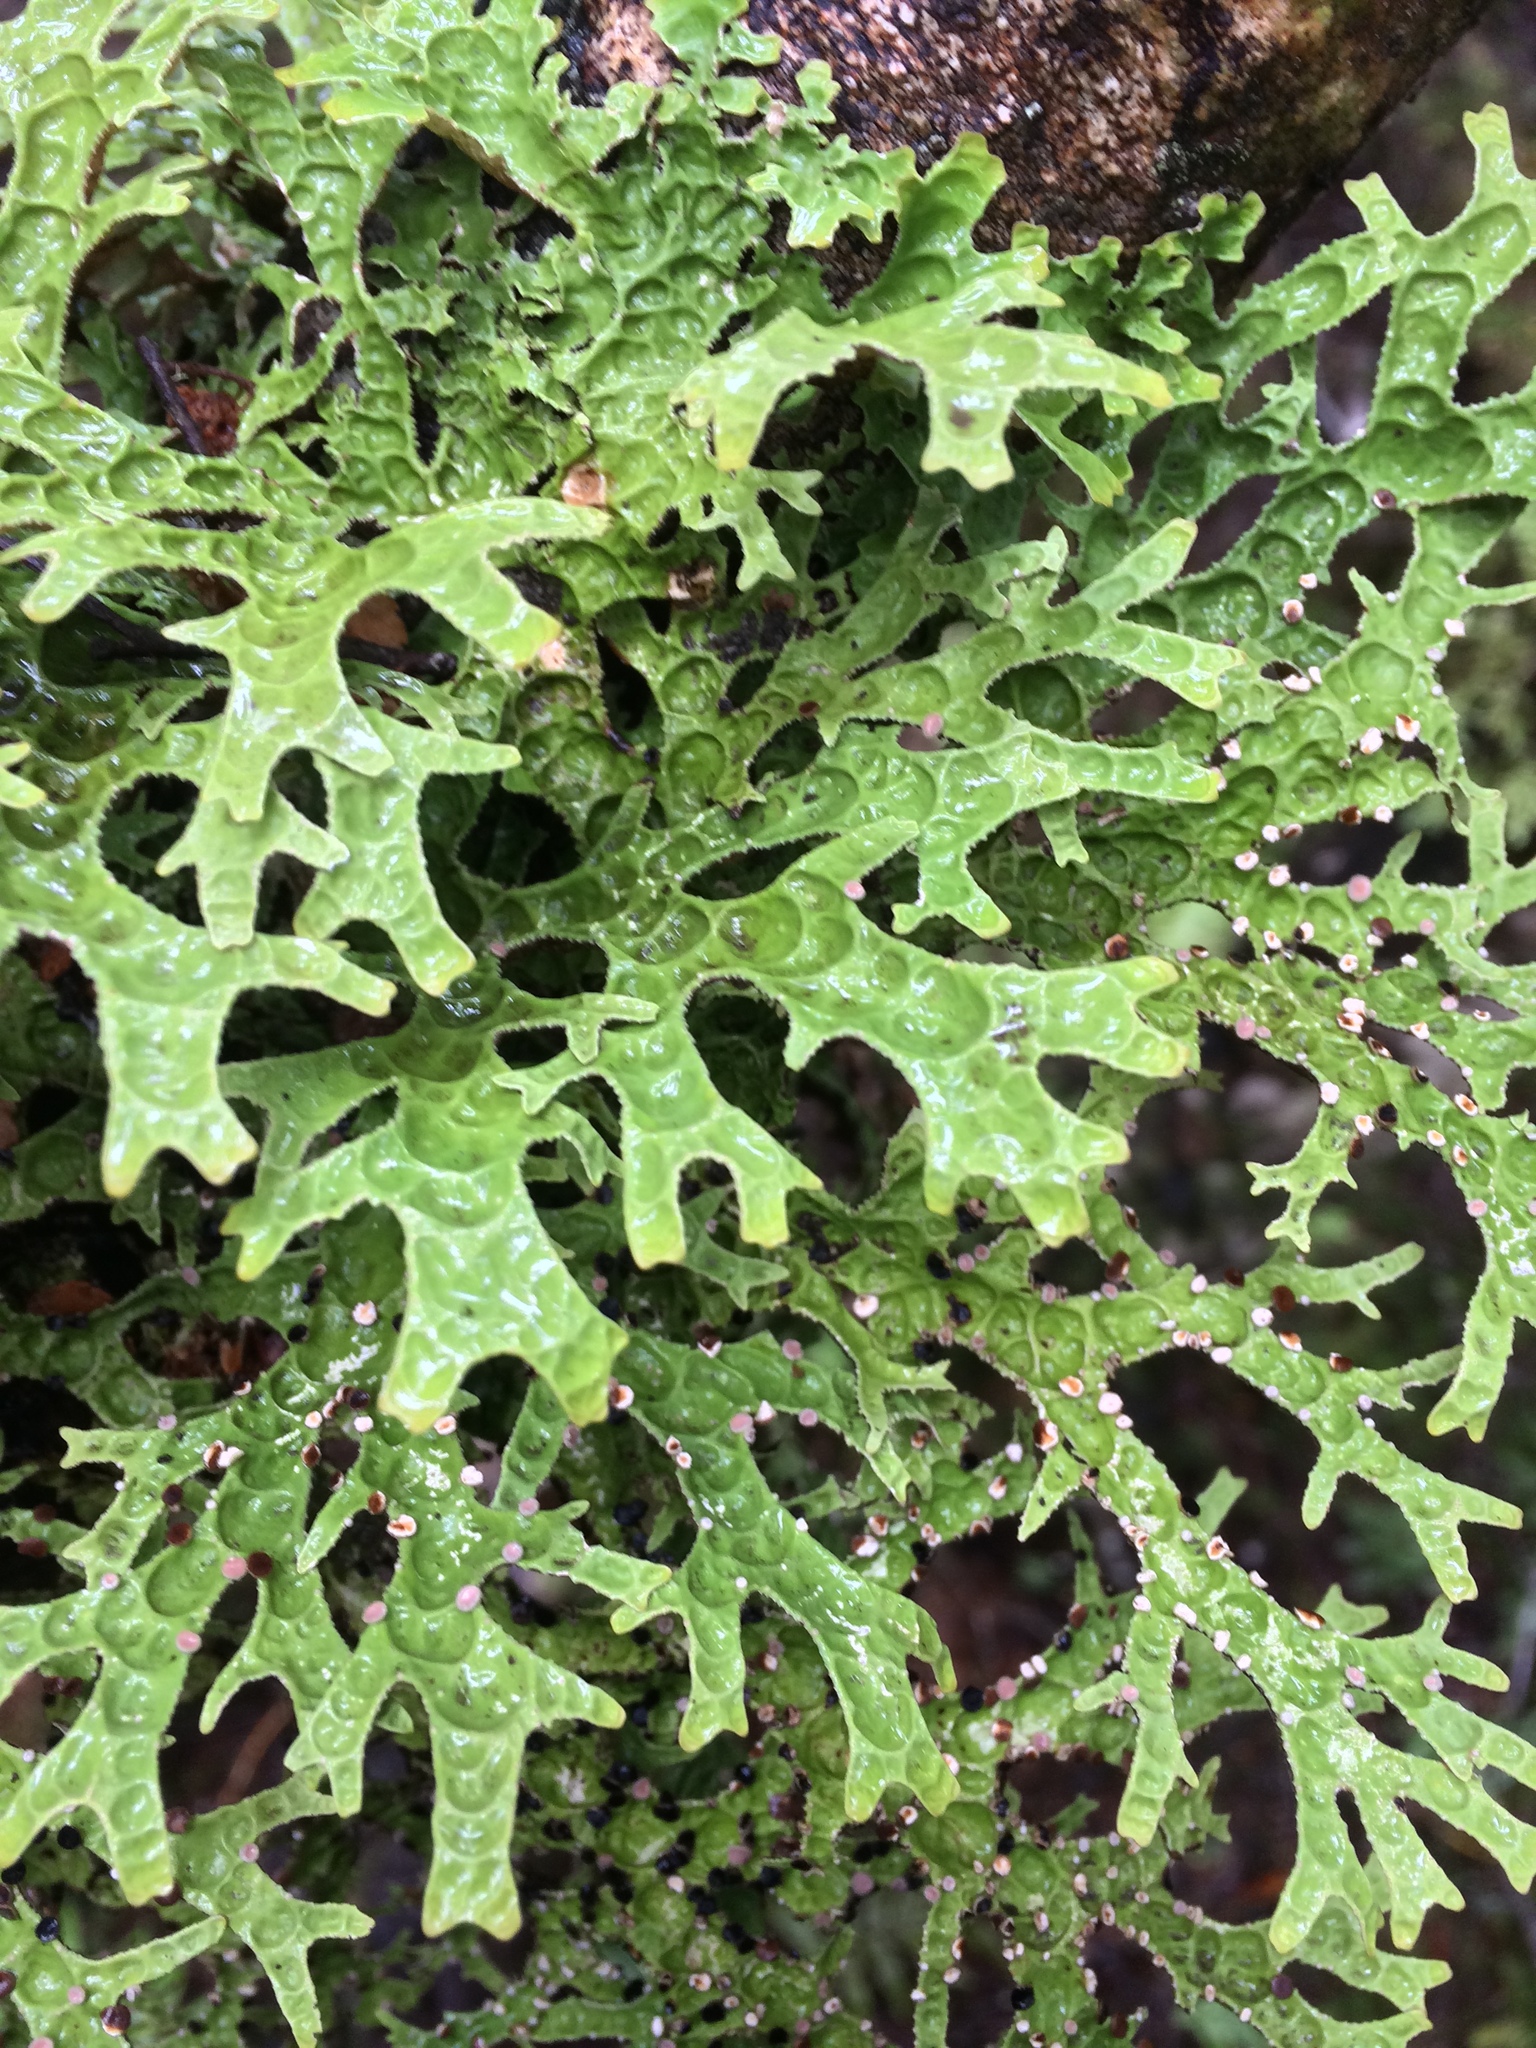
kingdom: Fungi
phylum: Ascomycota
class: Lecanoromycetes
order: Peltigerales
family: Lobariaceae
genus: Pseudocyphellaria
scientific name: Pseudocyphellaria rufovirescens
